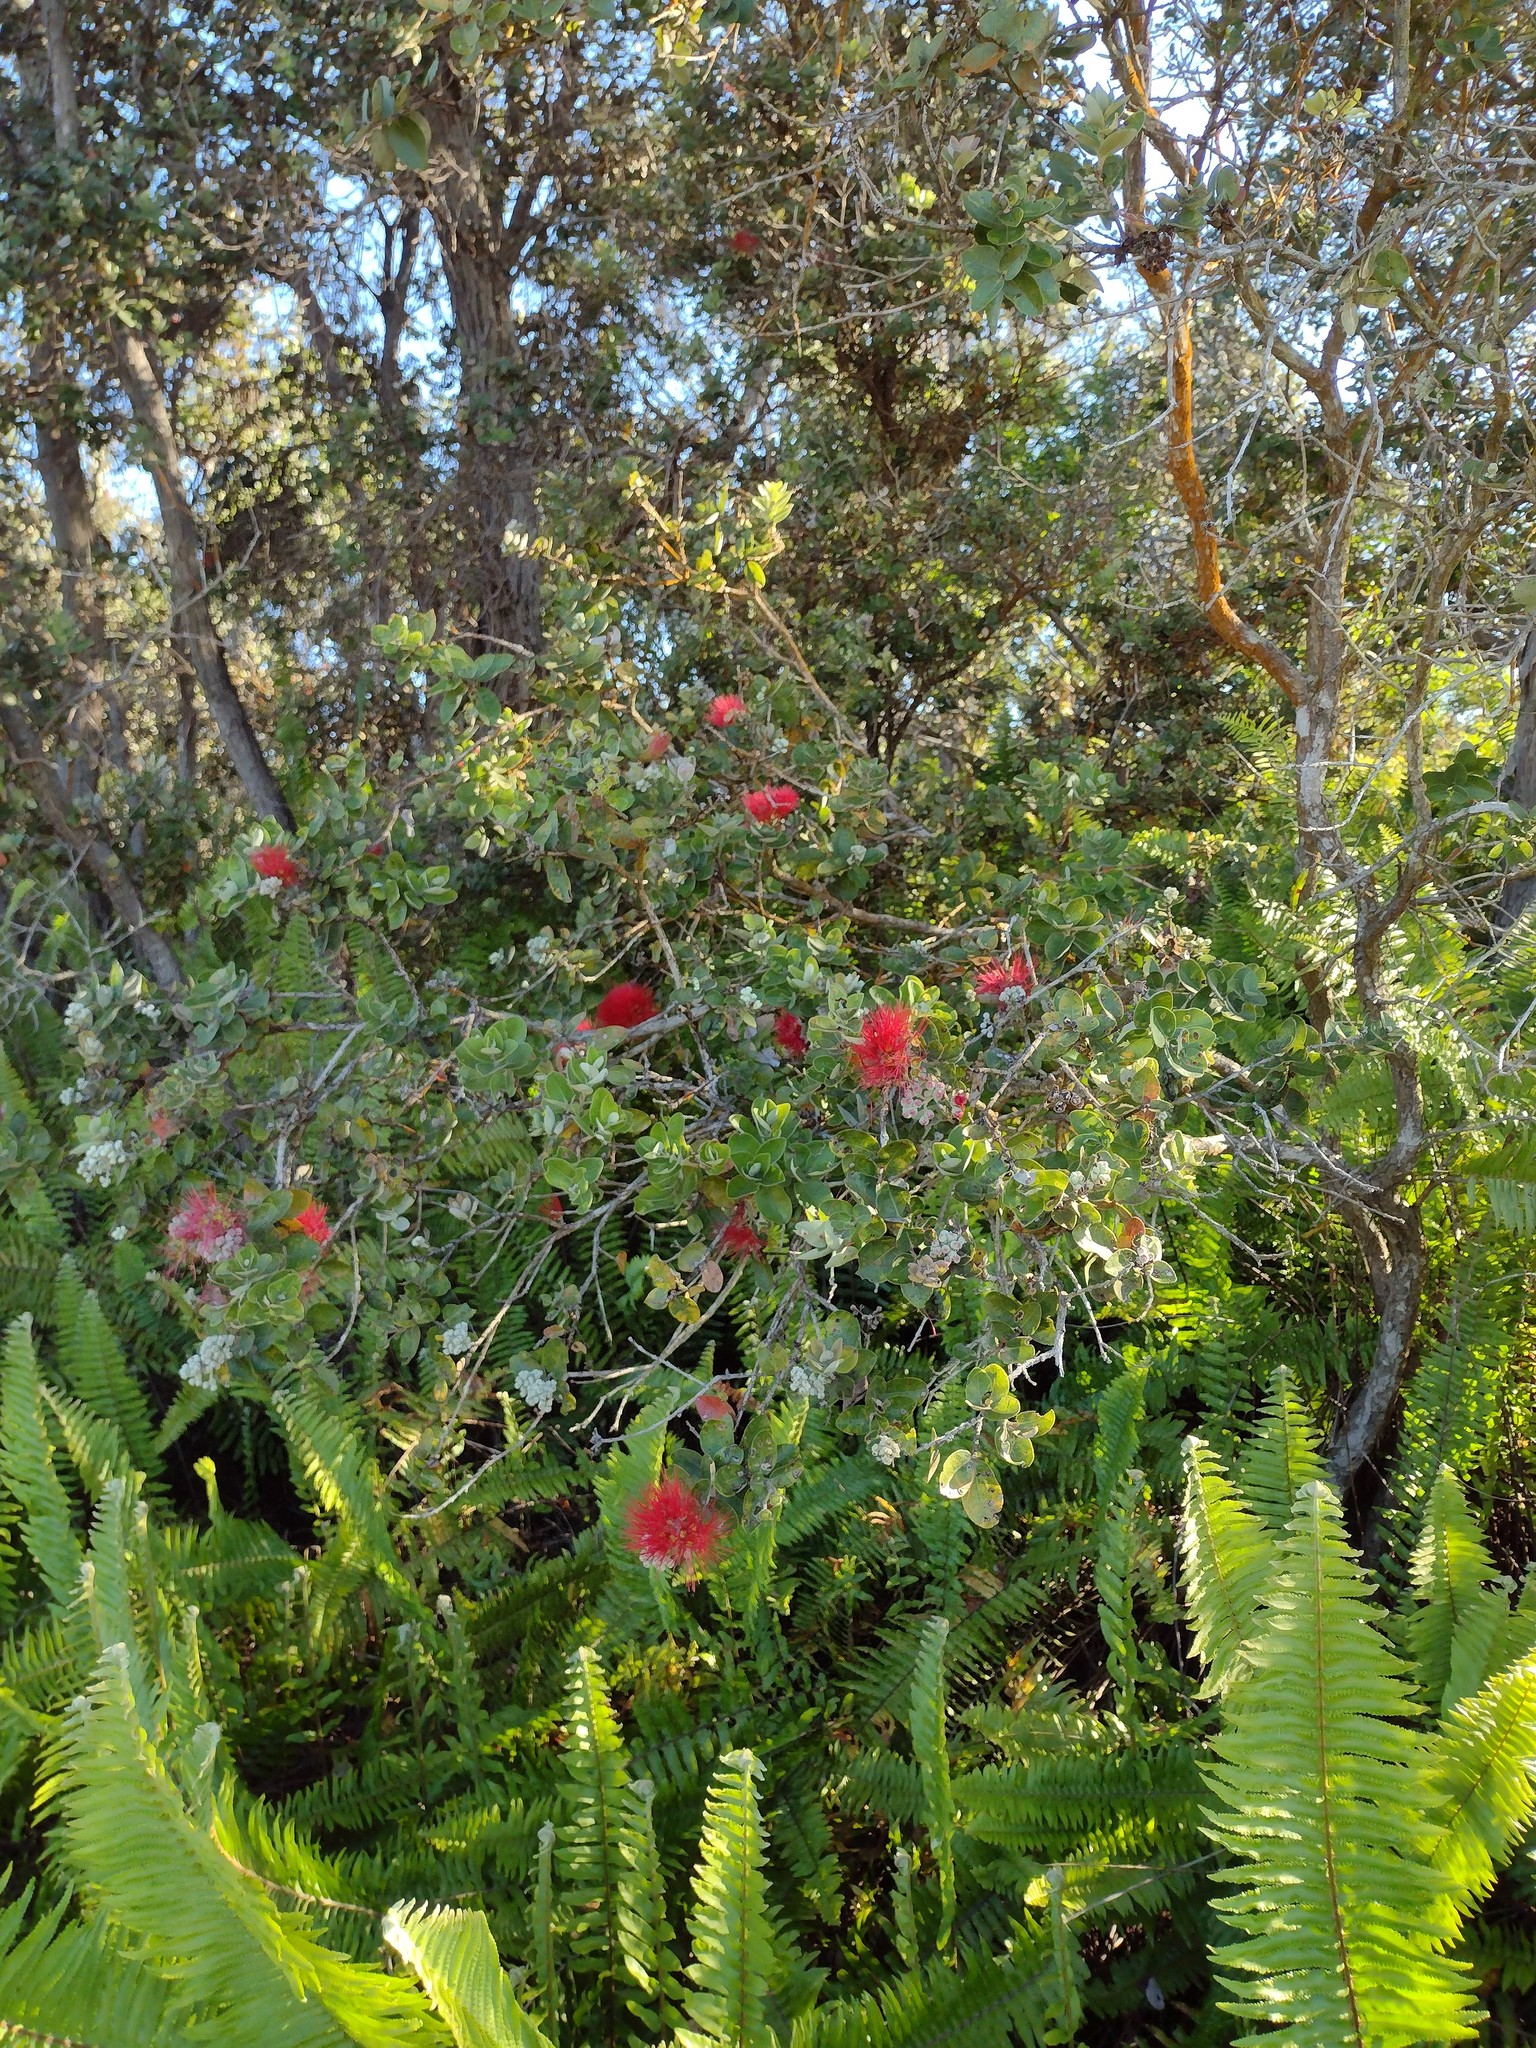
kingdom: Plantae
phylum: Tracheophyta
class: Magnoliopsida
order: Myrtales
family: Myrtaceae
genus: Metrosideros
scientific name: Metrosideros polymorpha
